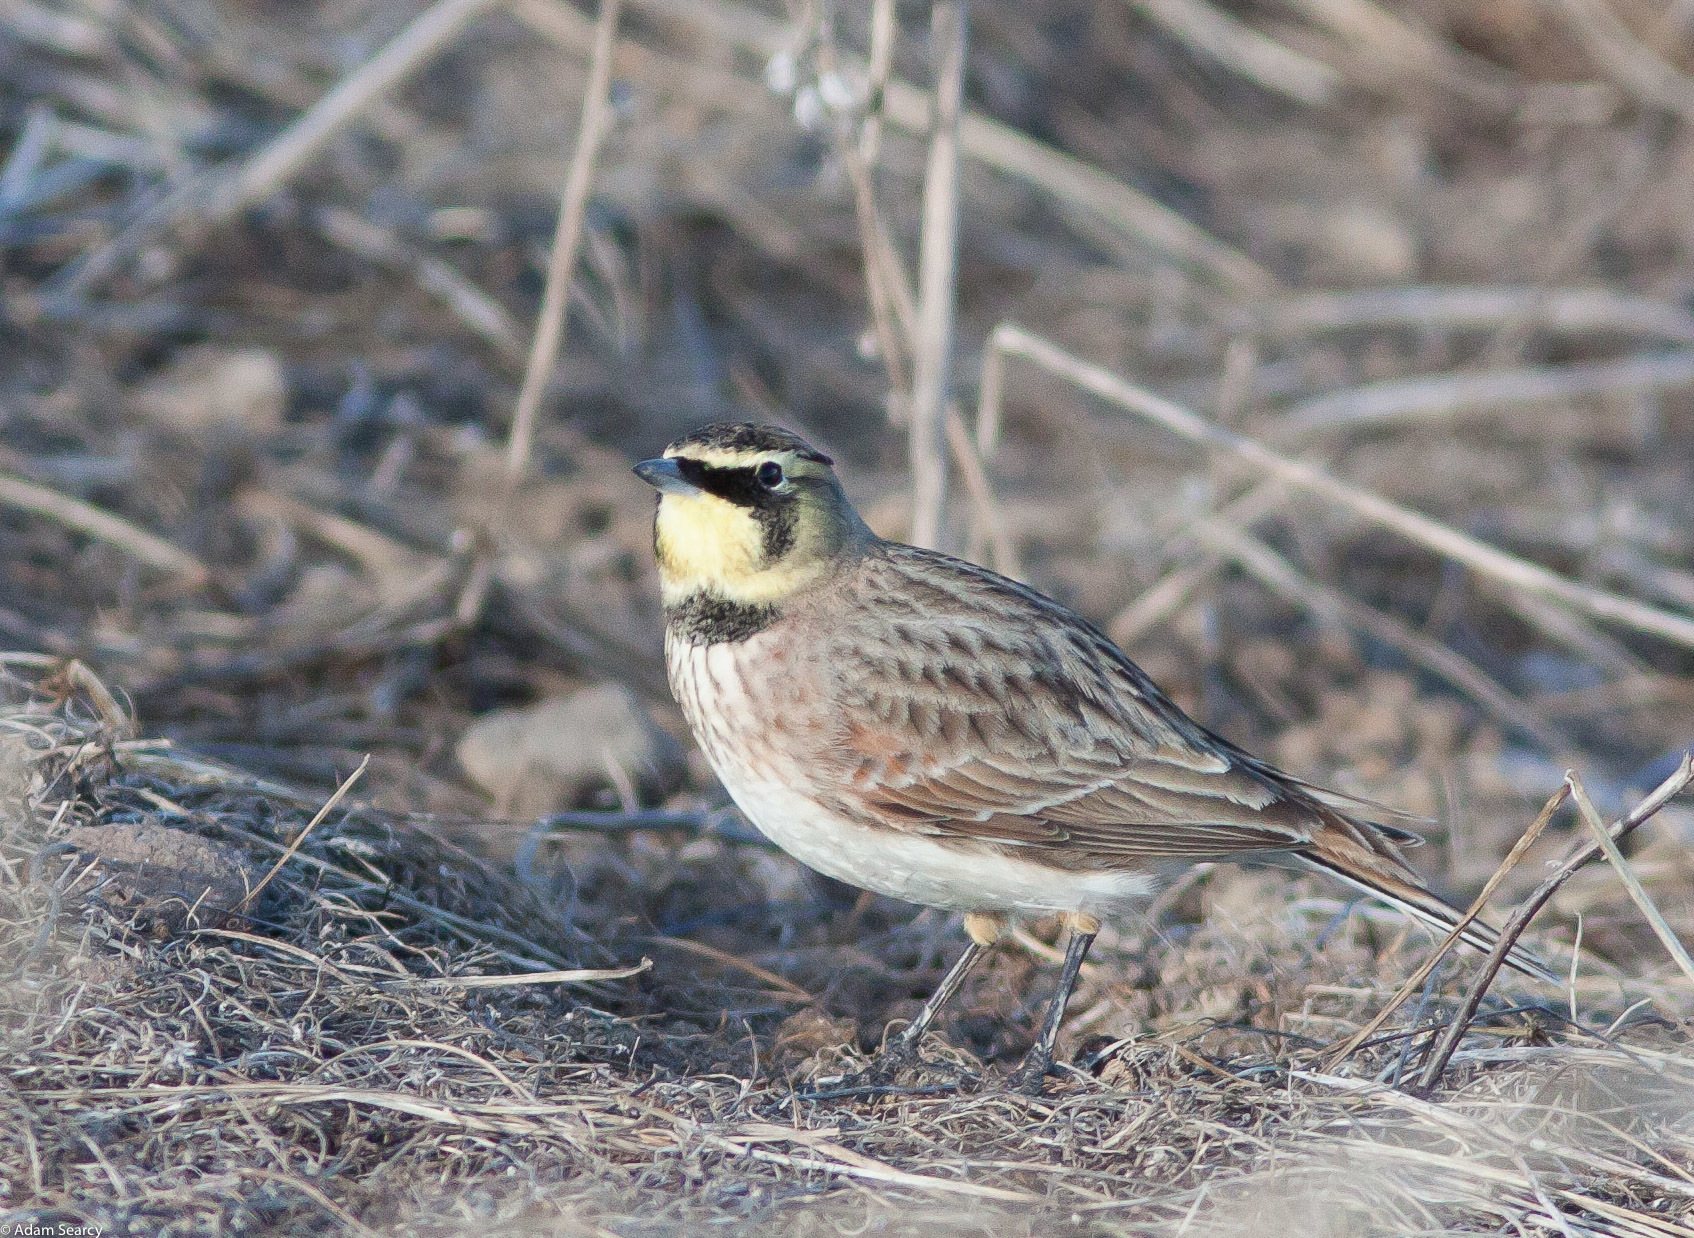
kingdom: Animalia
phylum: Chordata
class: Aves
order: Passeriformes
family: Alaudidae
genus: Eremophila
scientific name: Eremophila alpestris
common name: Horned lark
